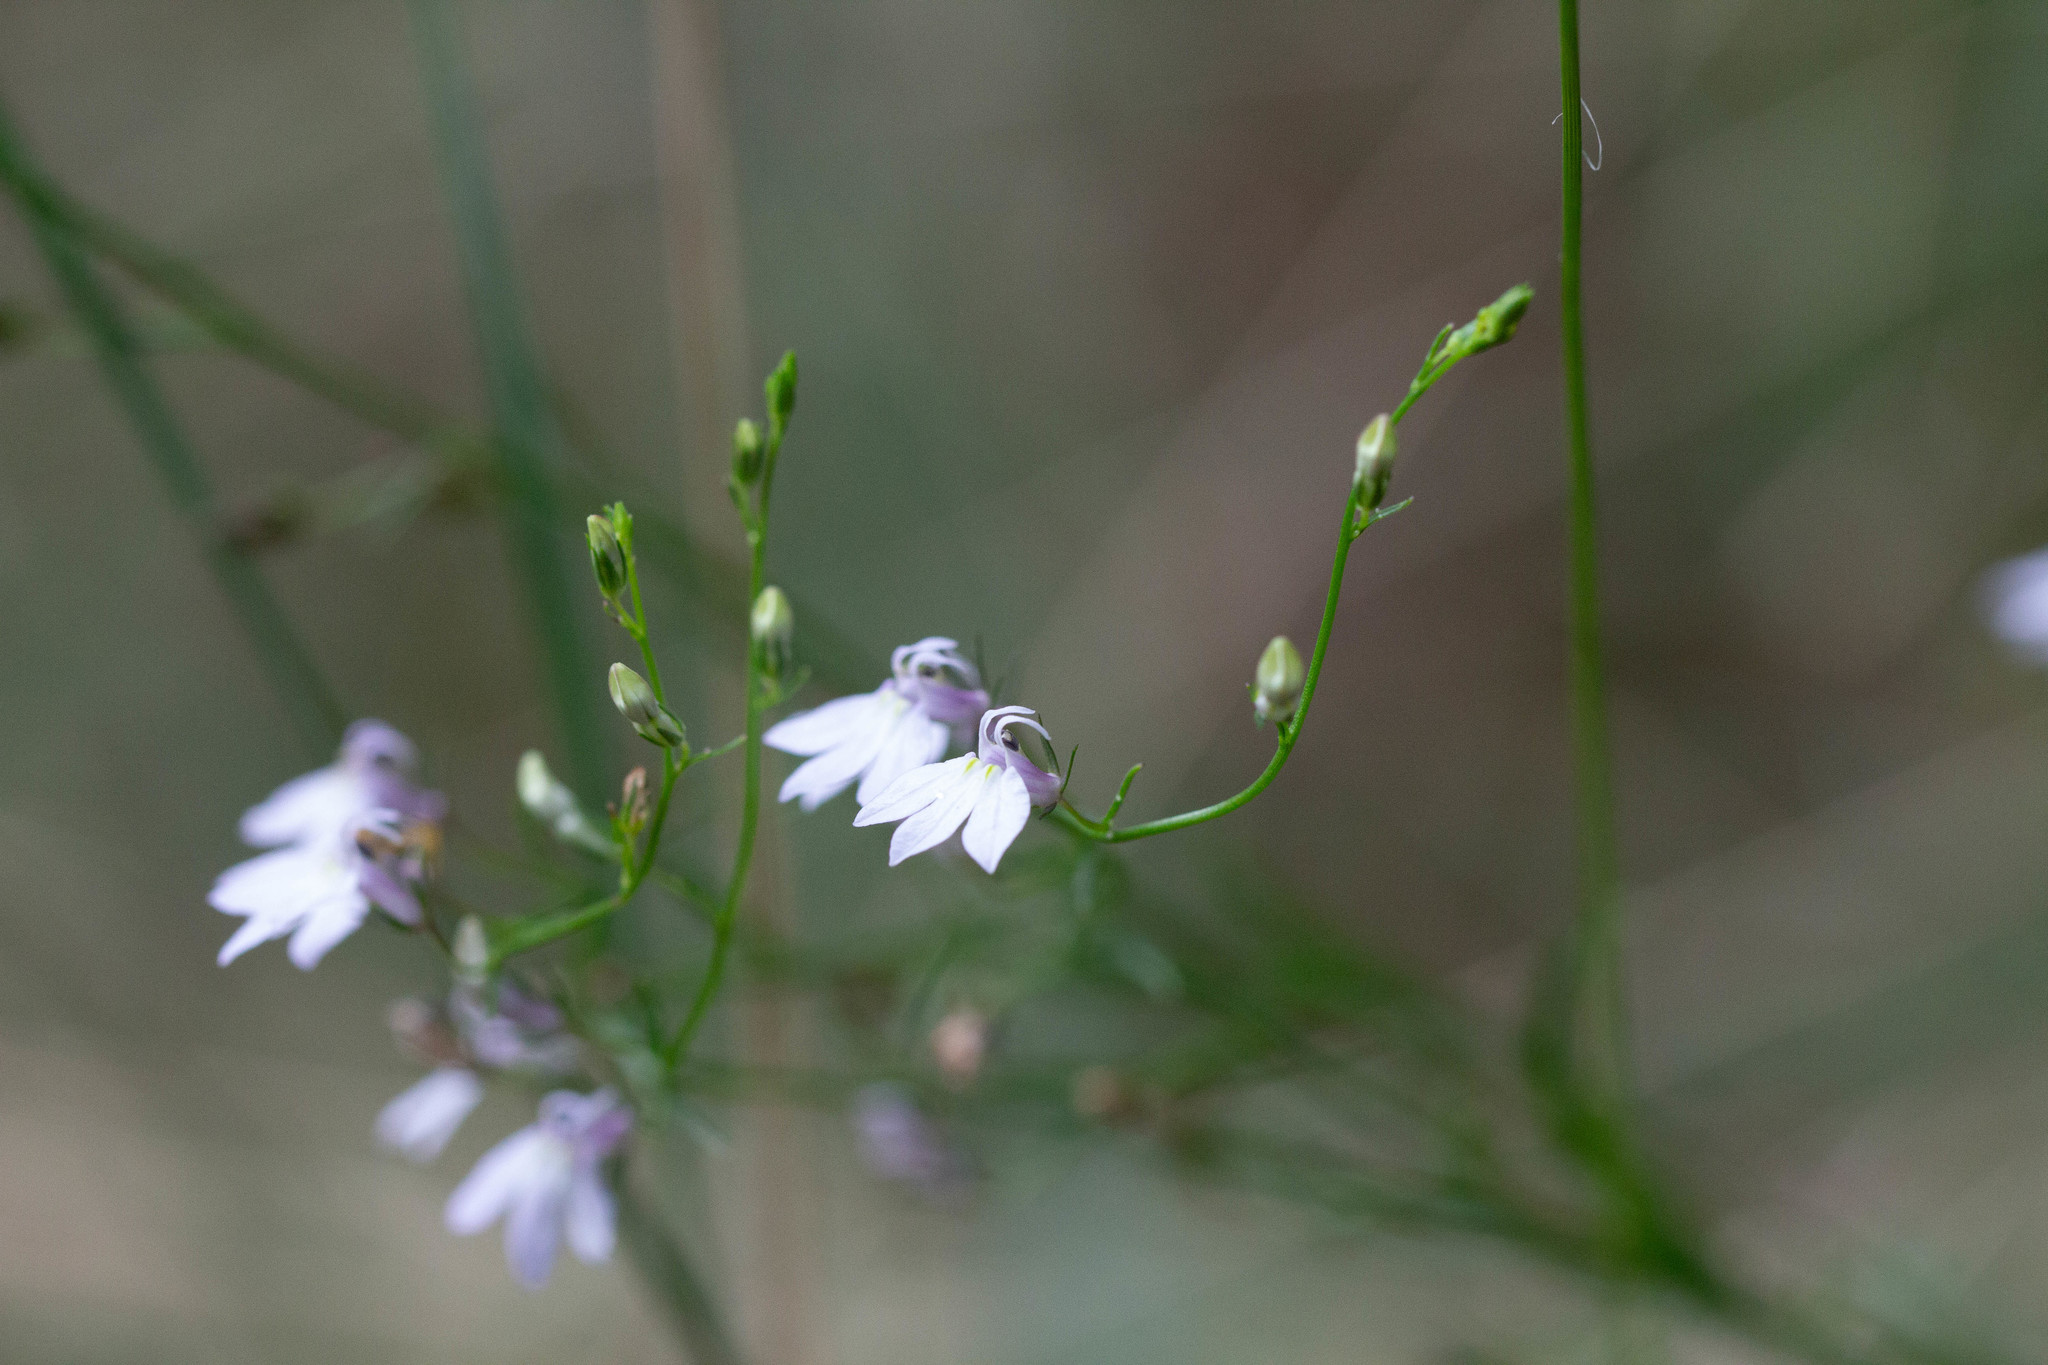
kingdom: Plantae
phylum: Tracheophyta
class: Magnoliopsida
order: Asterales
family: Campanulaceae
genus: Lobelia
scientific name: Lobelia nuttallii
